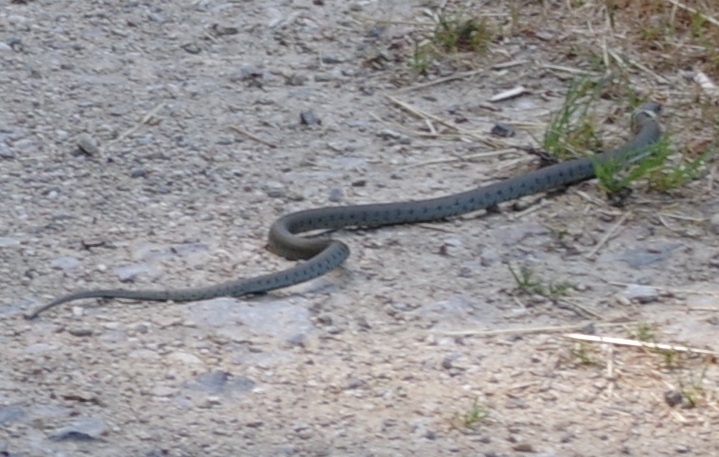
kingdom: Animalia
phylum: Chordata
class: Squamata
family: Colubridae
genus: Natrix
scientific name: Natrix helvetica
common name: Banded grass snake
